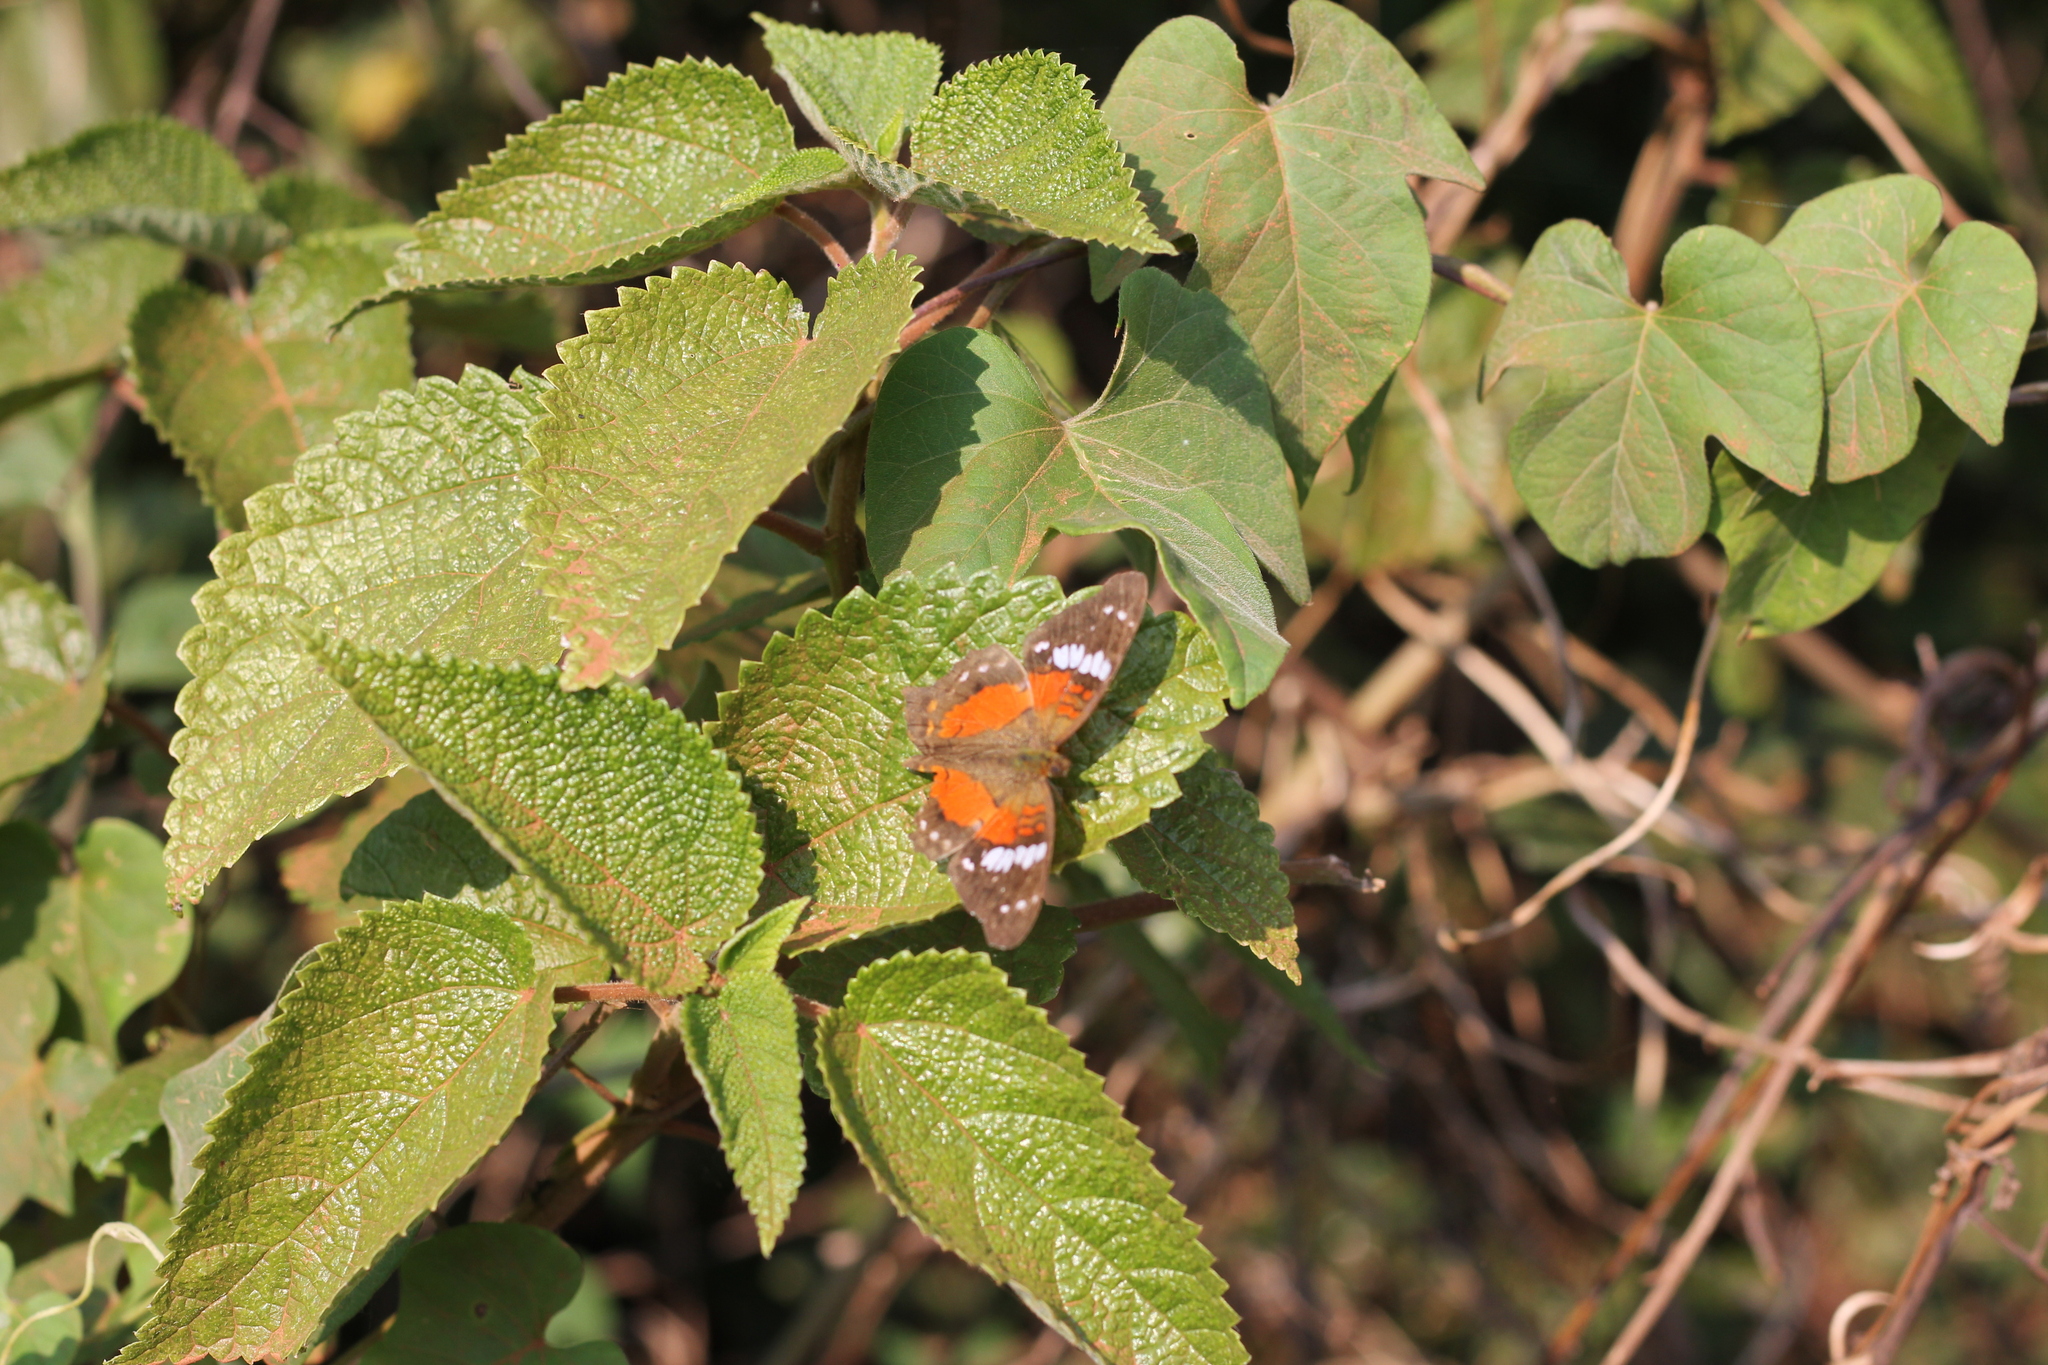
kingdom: Animalia
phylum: Arthropoda
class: Insecta
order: Lepidoptera
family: Nymphalidae
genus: Anartia
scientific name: Anartia amathea
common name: Red peacock
